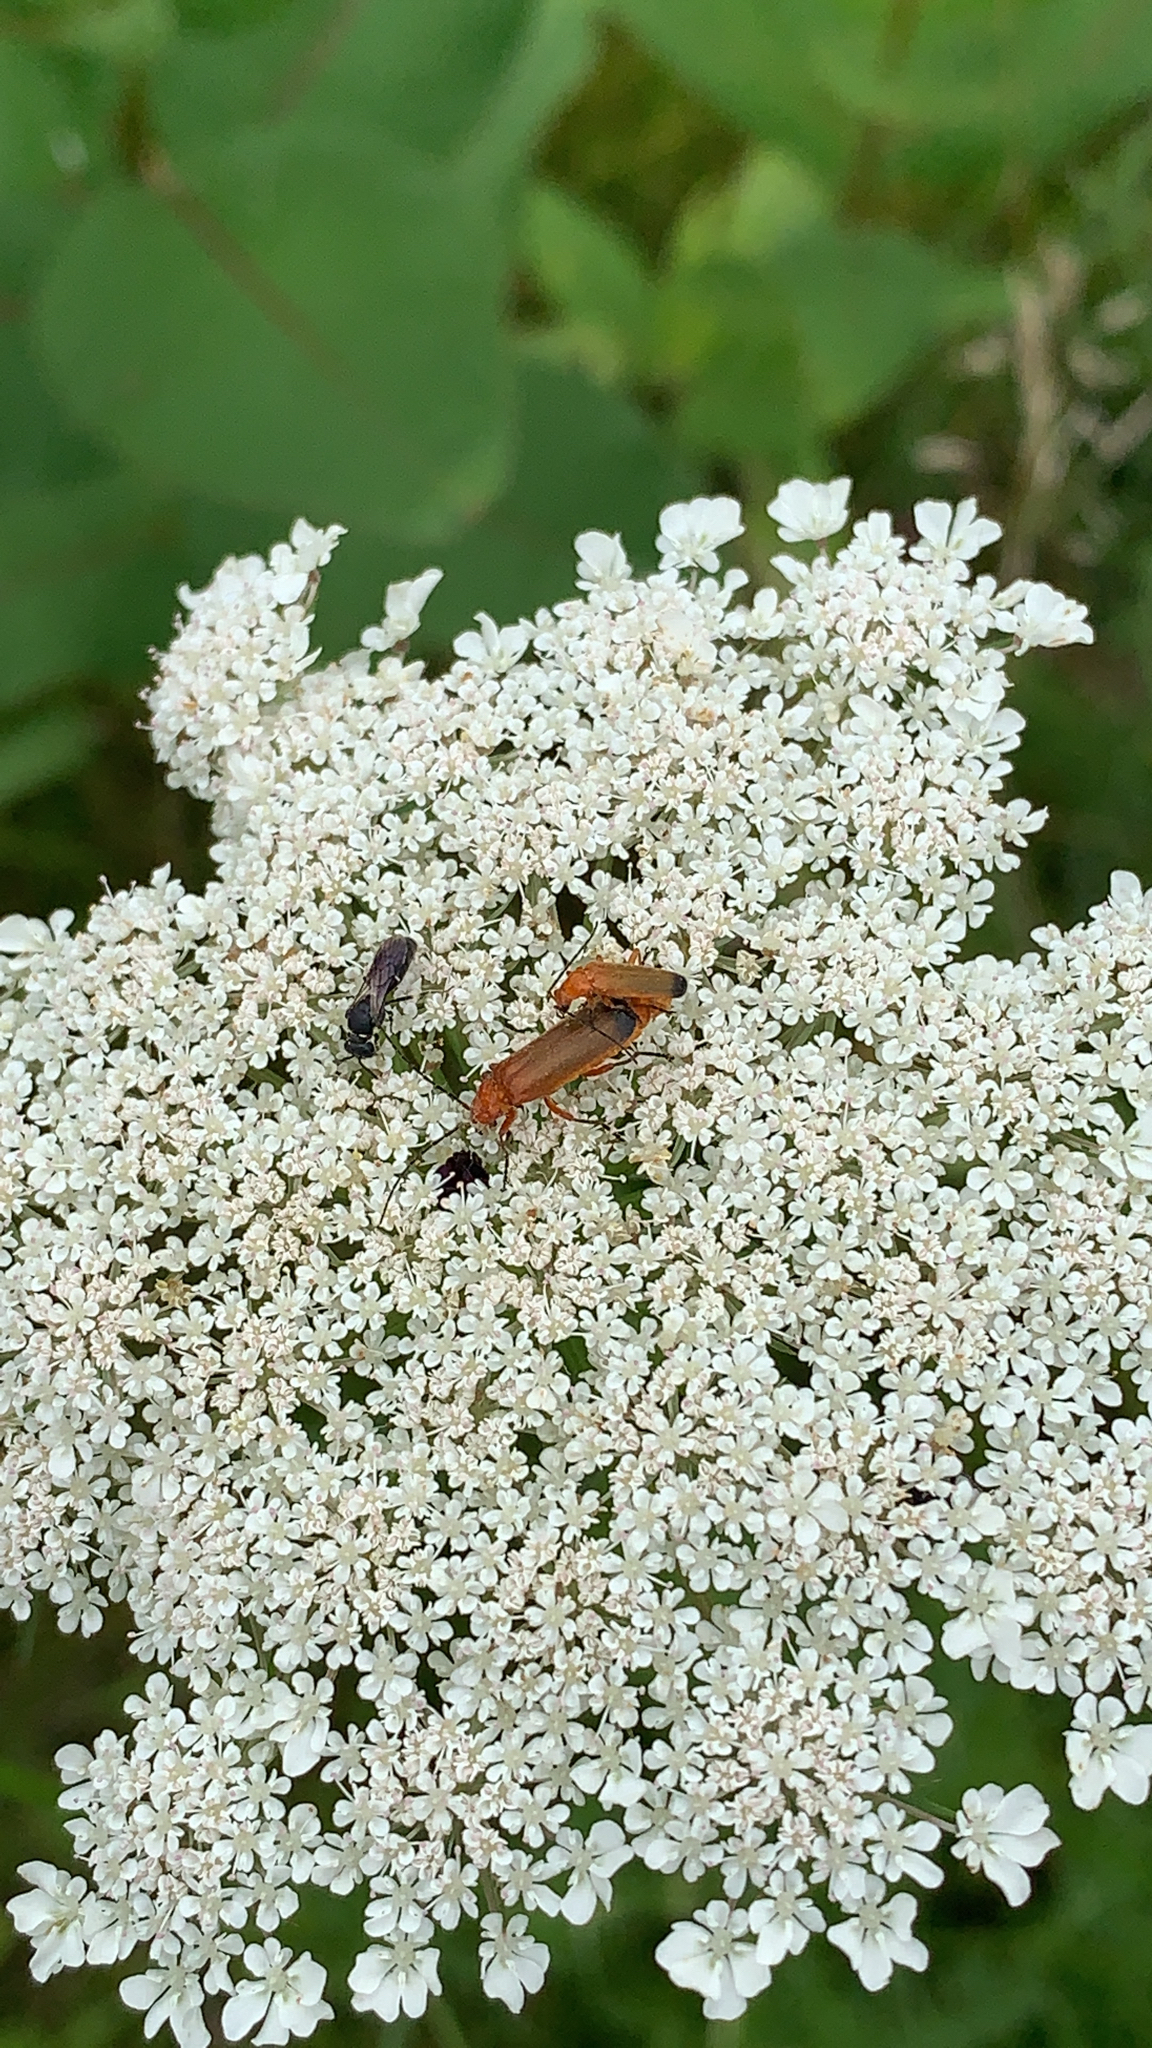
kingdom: Animalia
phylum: Arthropoda
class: Insecta
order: Coleoptera
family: Cantharidae
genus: Rhagonycha
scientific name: Rhagonycha fulva
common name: Common red soldier beetle
